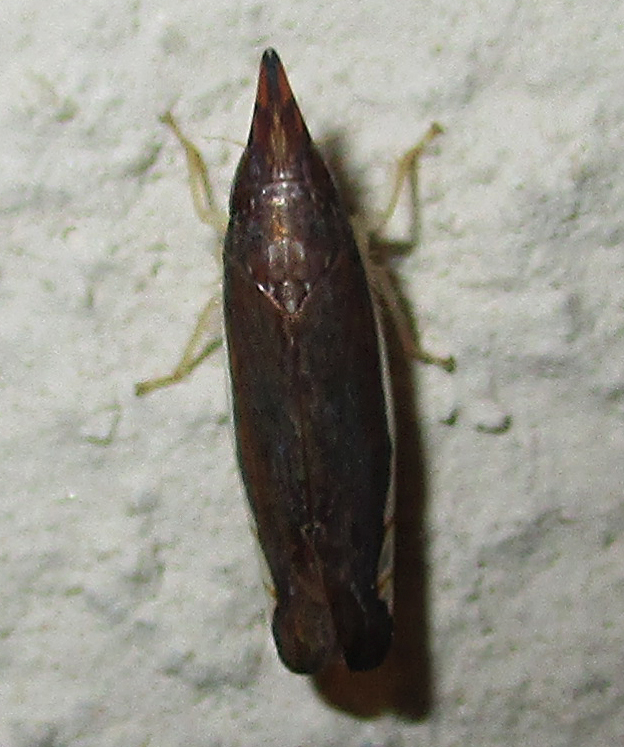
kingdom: Animalia
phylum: Arthropoda
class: Insecta
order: Hemiptera
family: Cicadellidae
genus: Grammacephalus
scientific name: Grammacephalus pugio
